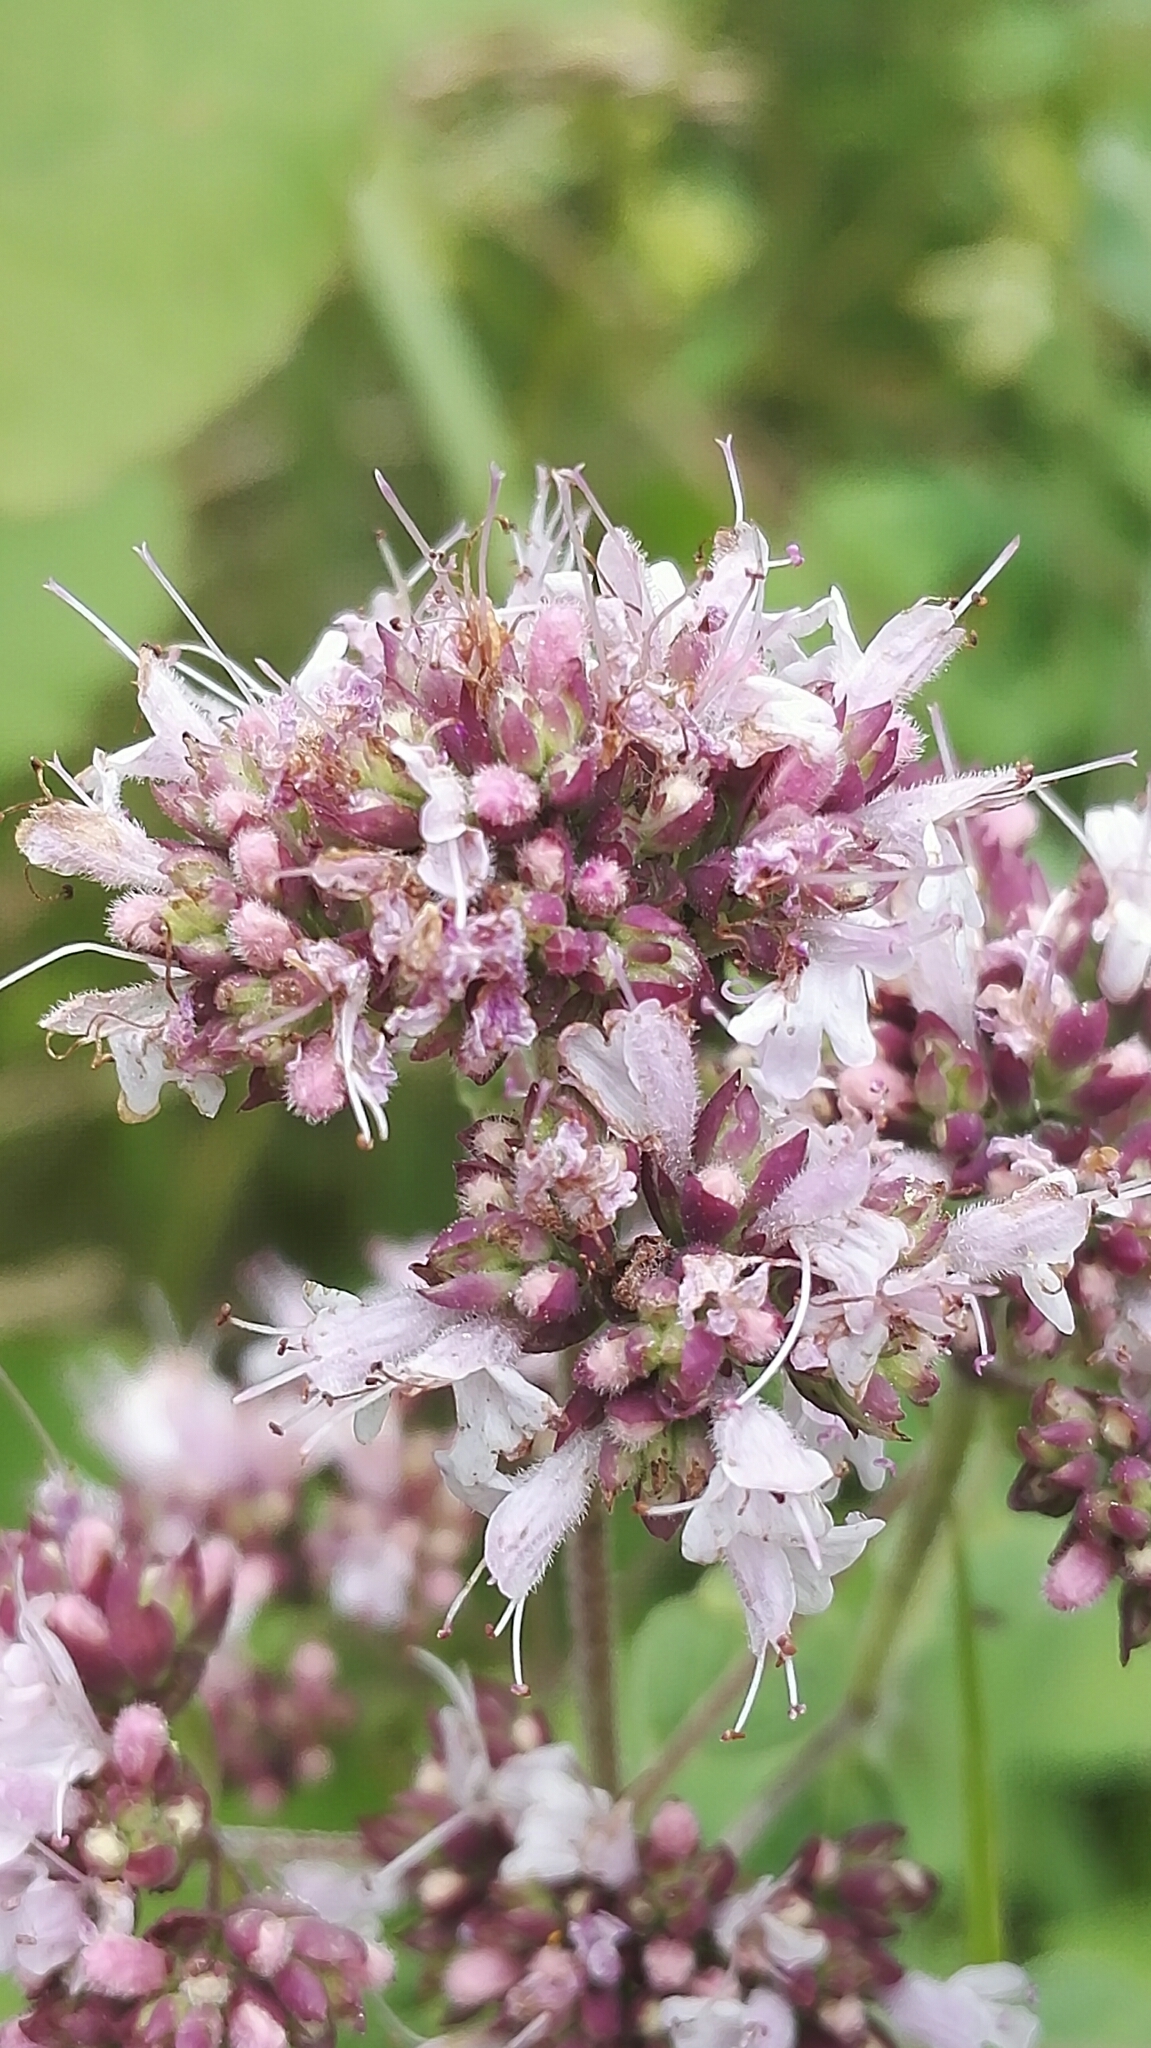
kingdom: Plantae
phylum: Tracheophyta
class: Magnoliopsida
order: Lamiales
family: Lamiaceae
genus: Origanum
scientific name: Origanum vulgare
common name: Wild marjoram
